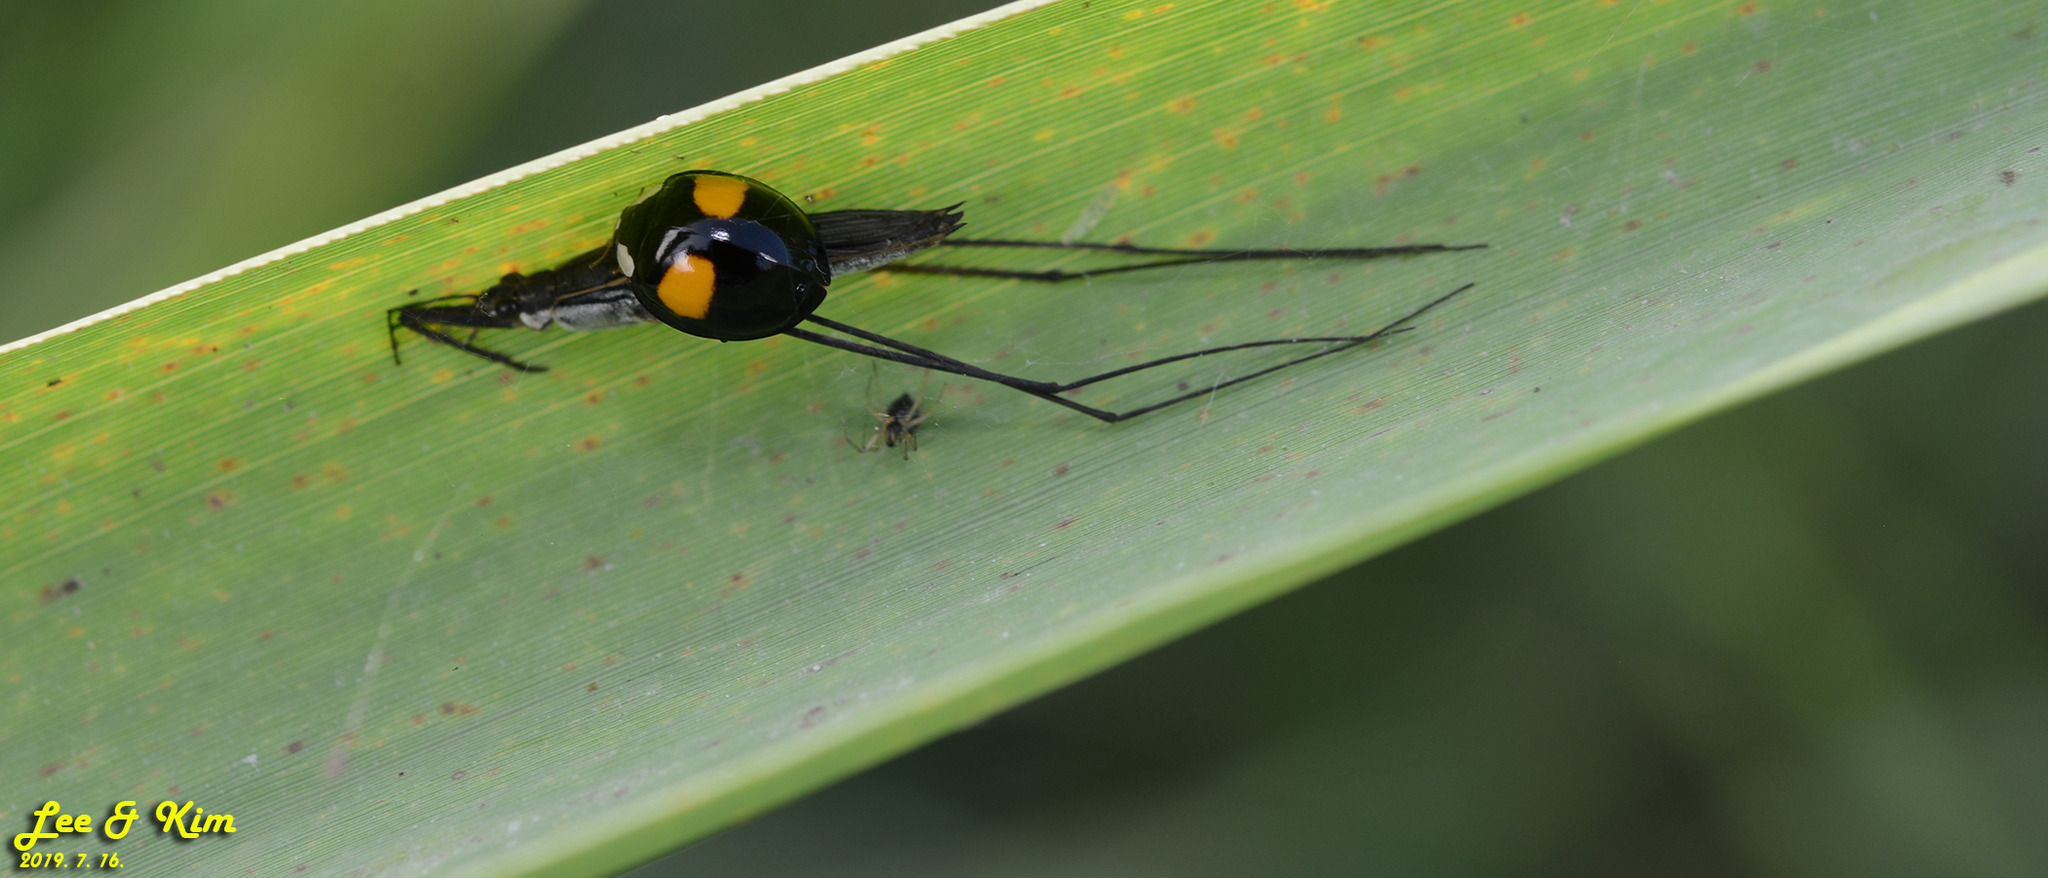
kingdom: Animalia
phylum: Arthropoda
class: Insecta
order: Coleoptera
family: Coccinellidae
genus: Harmonia
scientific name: Harmonia axyridis
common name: Harlequin ladybird
